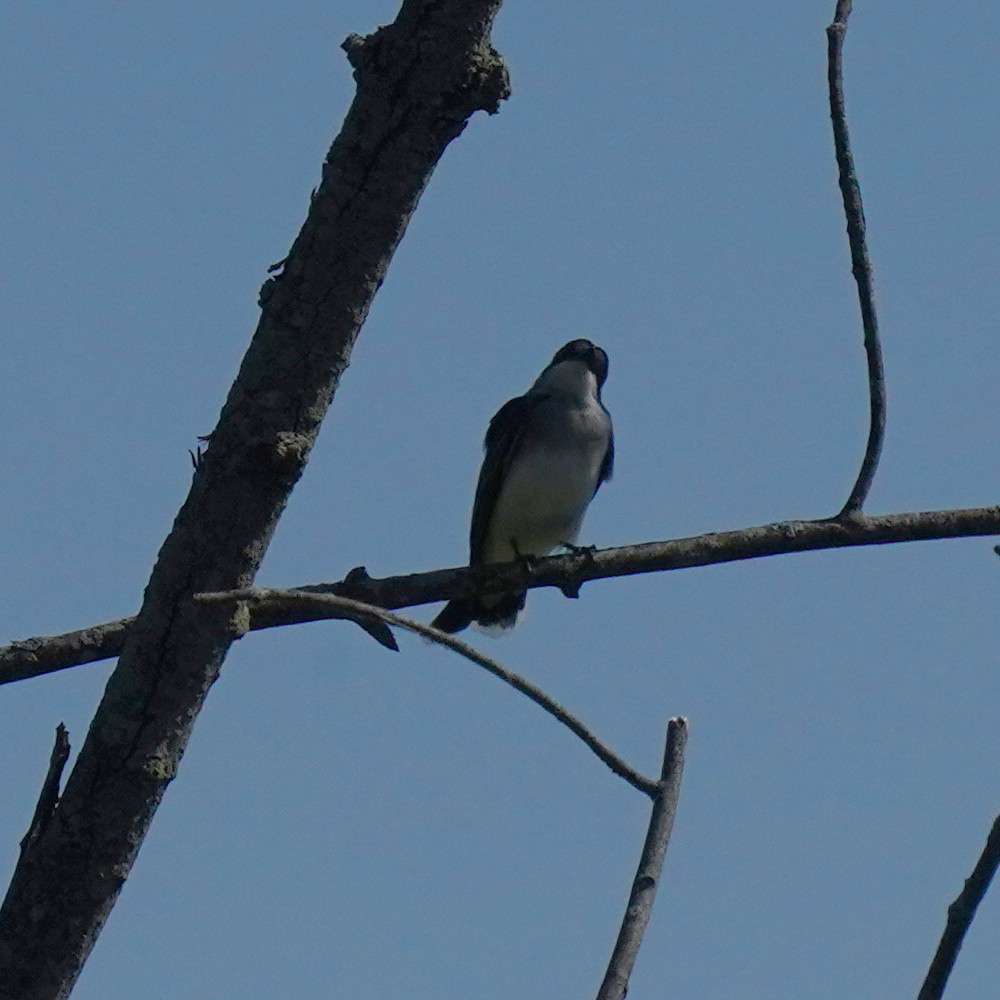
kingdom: Animalia
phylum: Chordata
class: Aves
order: Passeriformes
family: Tyrannidae
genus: Tyrannus
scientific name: Tyrannus tyrannus
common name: Eastern kingbird
